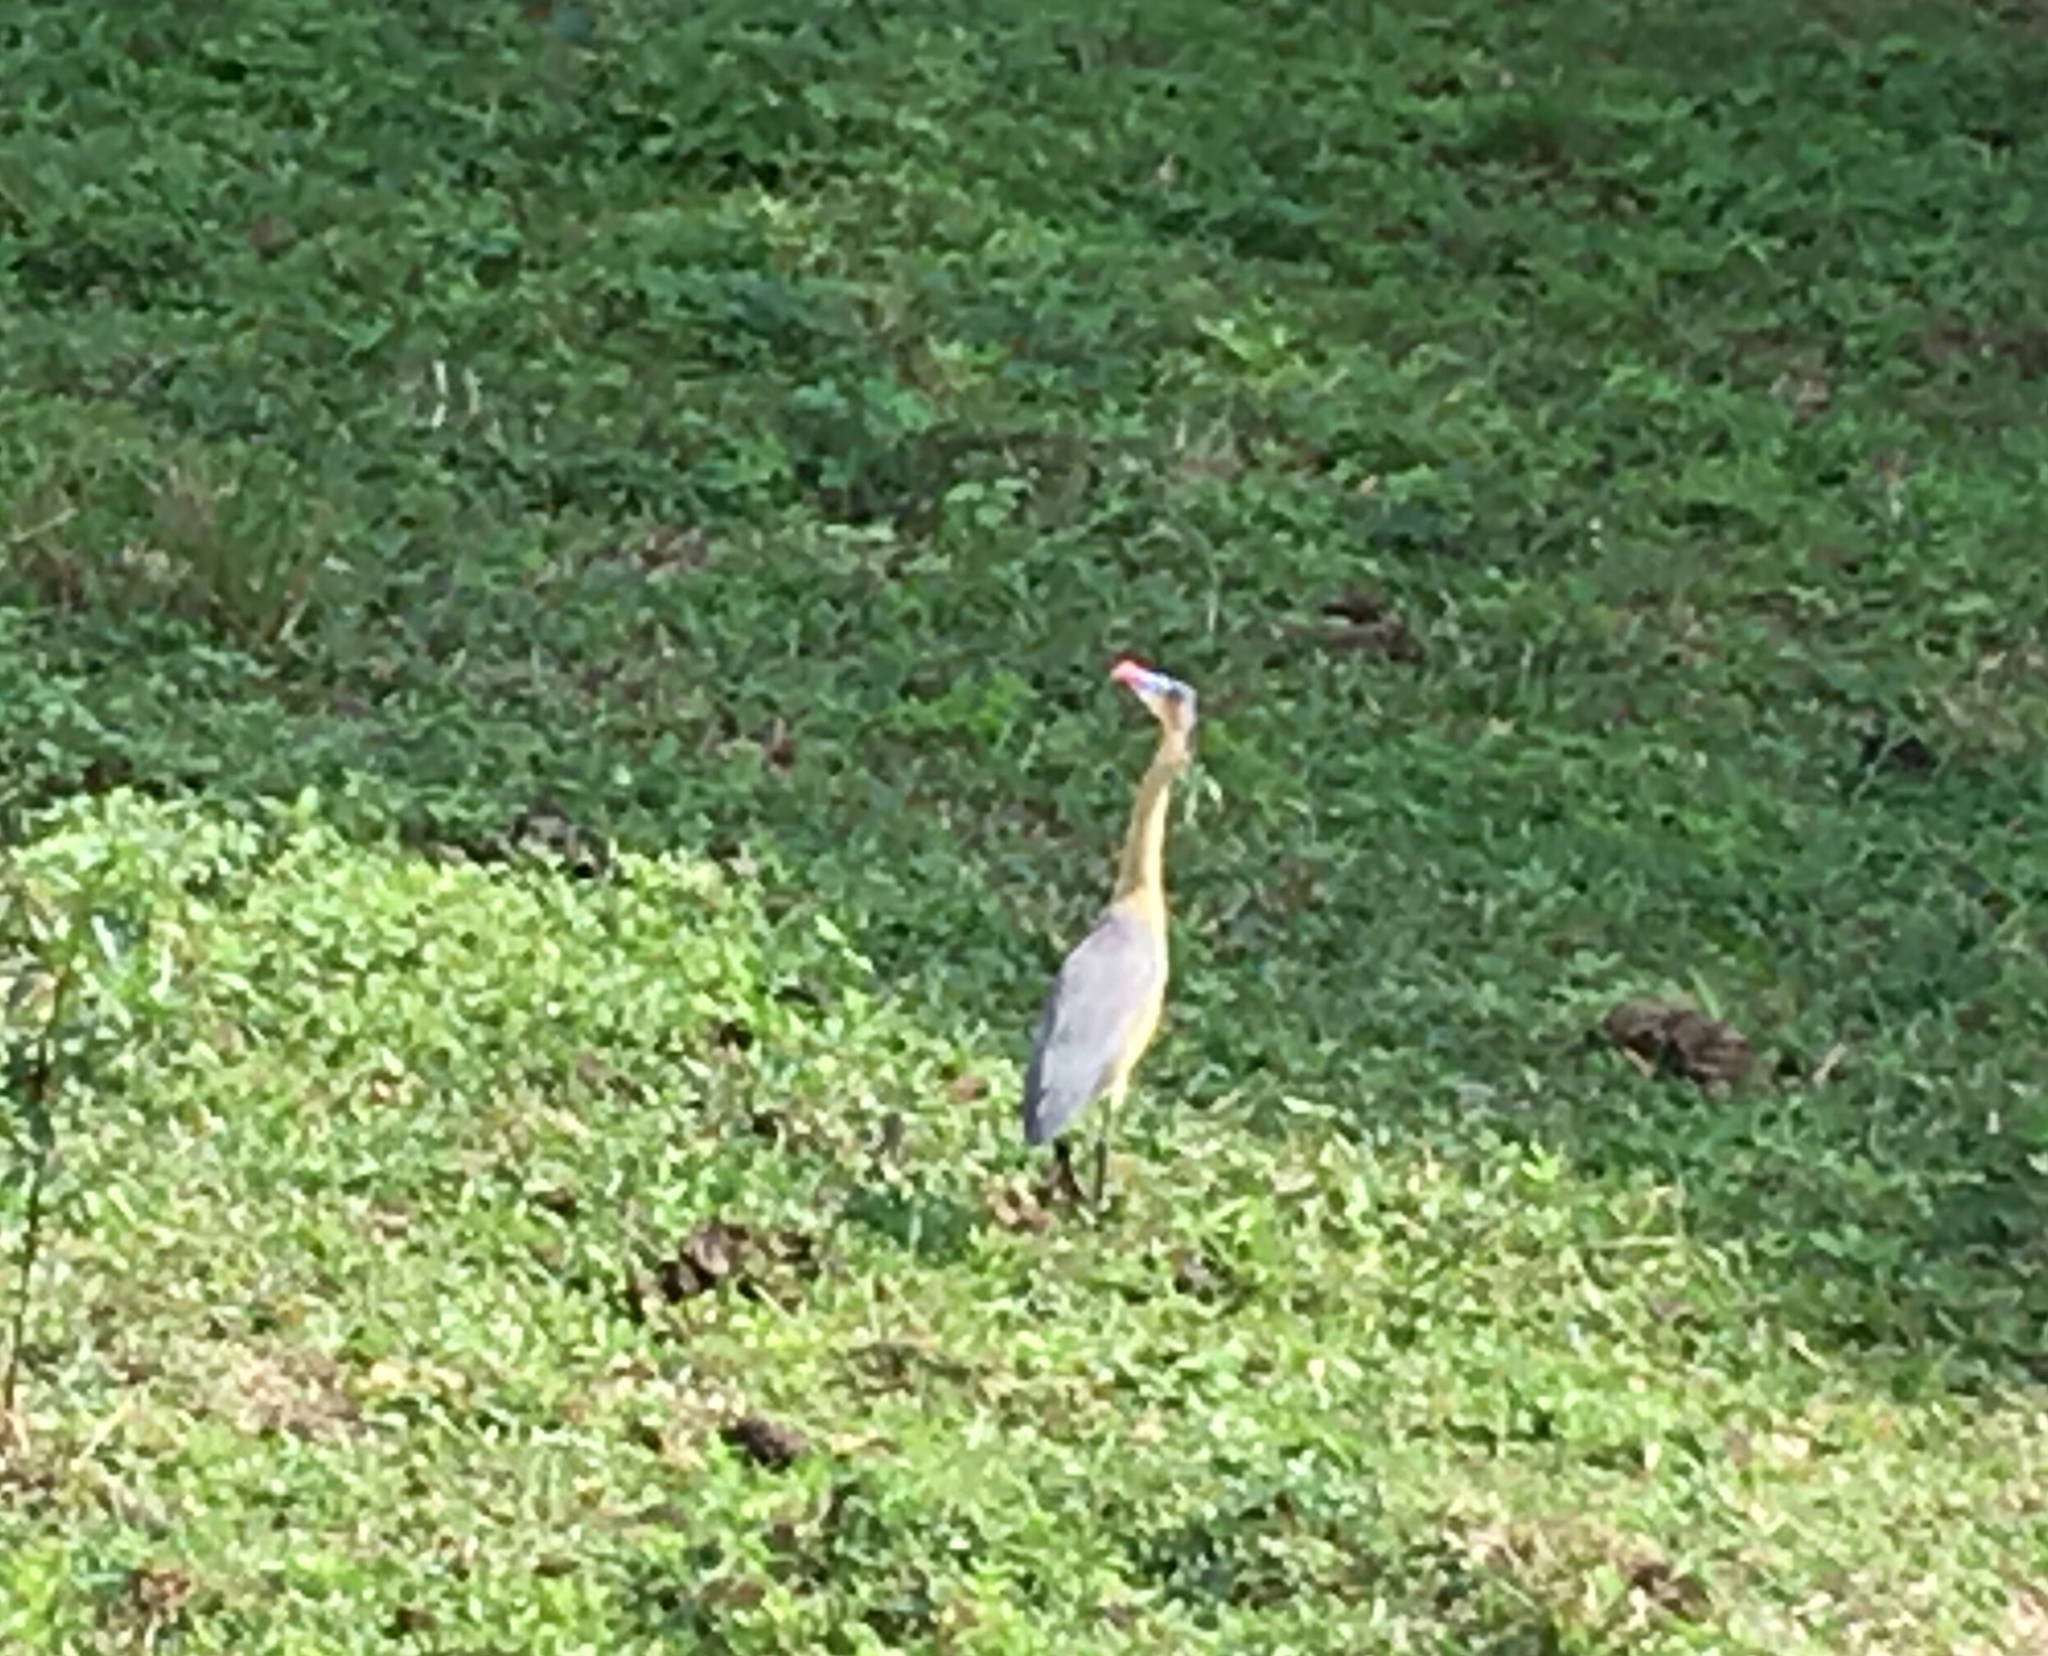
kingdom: Animalia
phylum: Chordata
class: Aves
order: Pelecaniformes
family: Ardeidae
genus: Syrigma
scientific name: Syrigma sibilatrix
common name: Whistling heron
